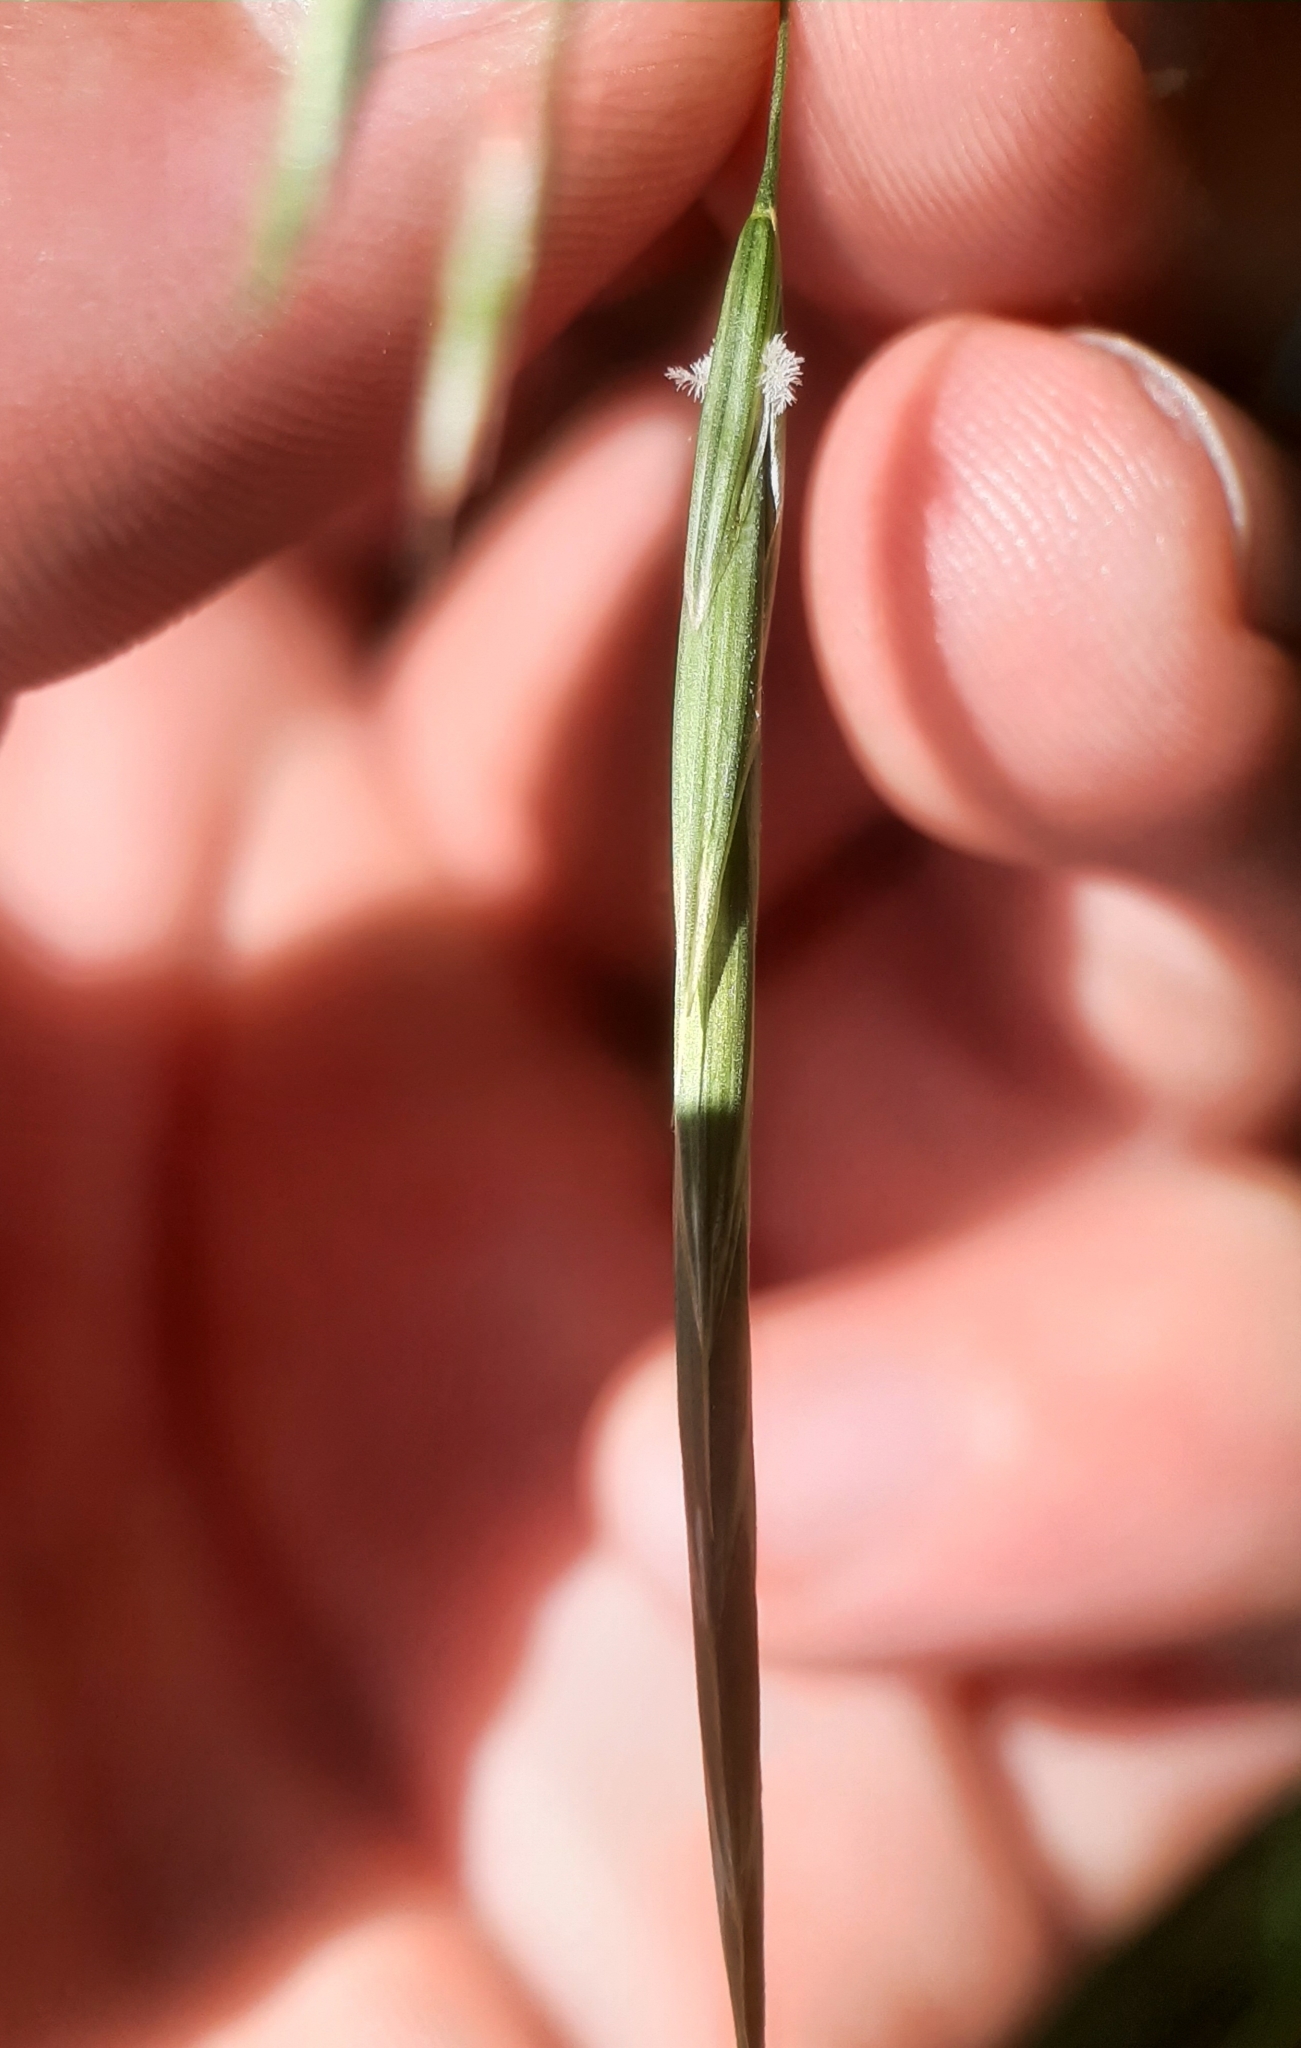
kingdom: Plantae
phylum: Tracheophyta
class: Liliopsida
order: Poales
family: Poaceae
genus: Bromus
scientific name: Bromus inermis
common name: Smooth brome
